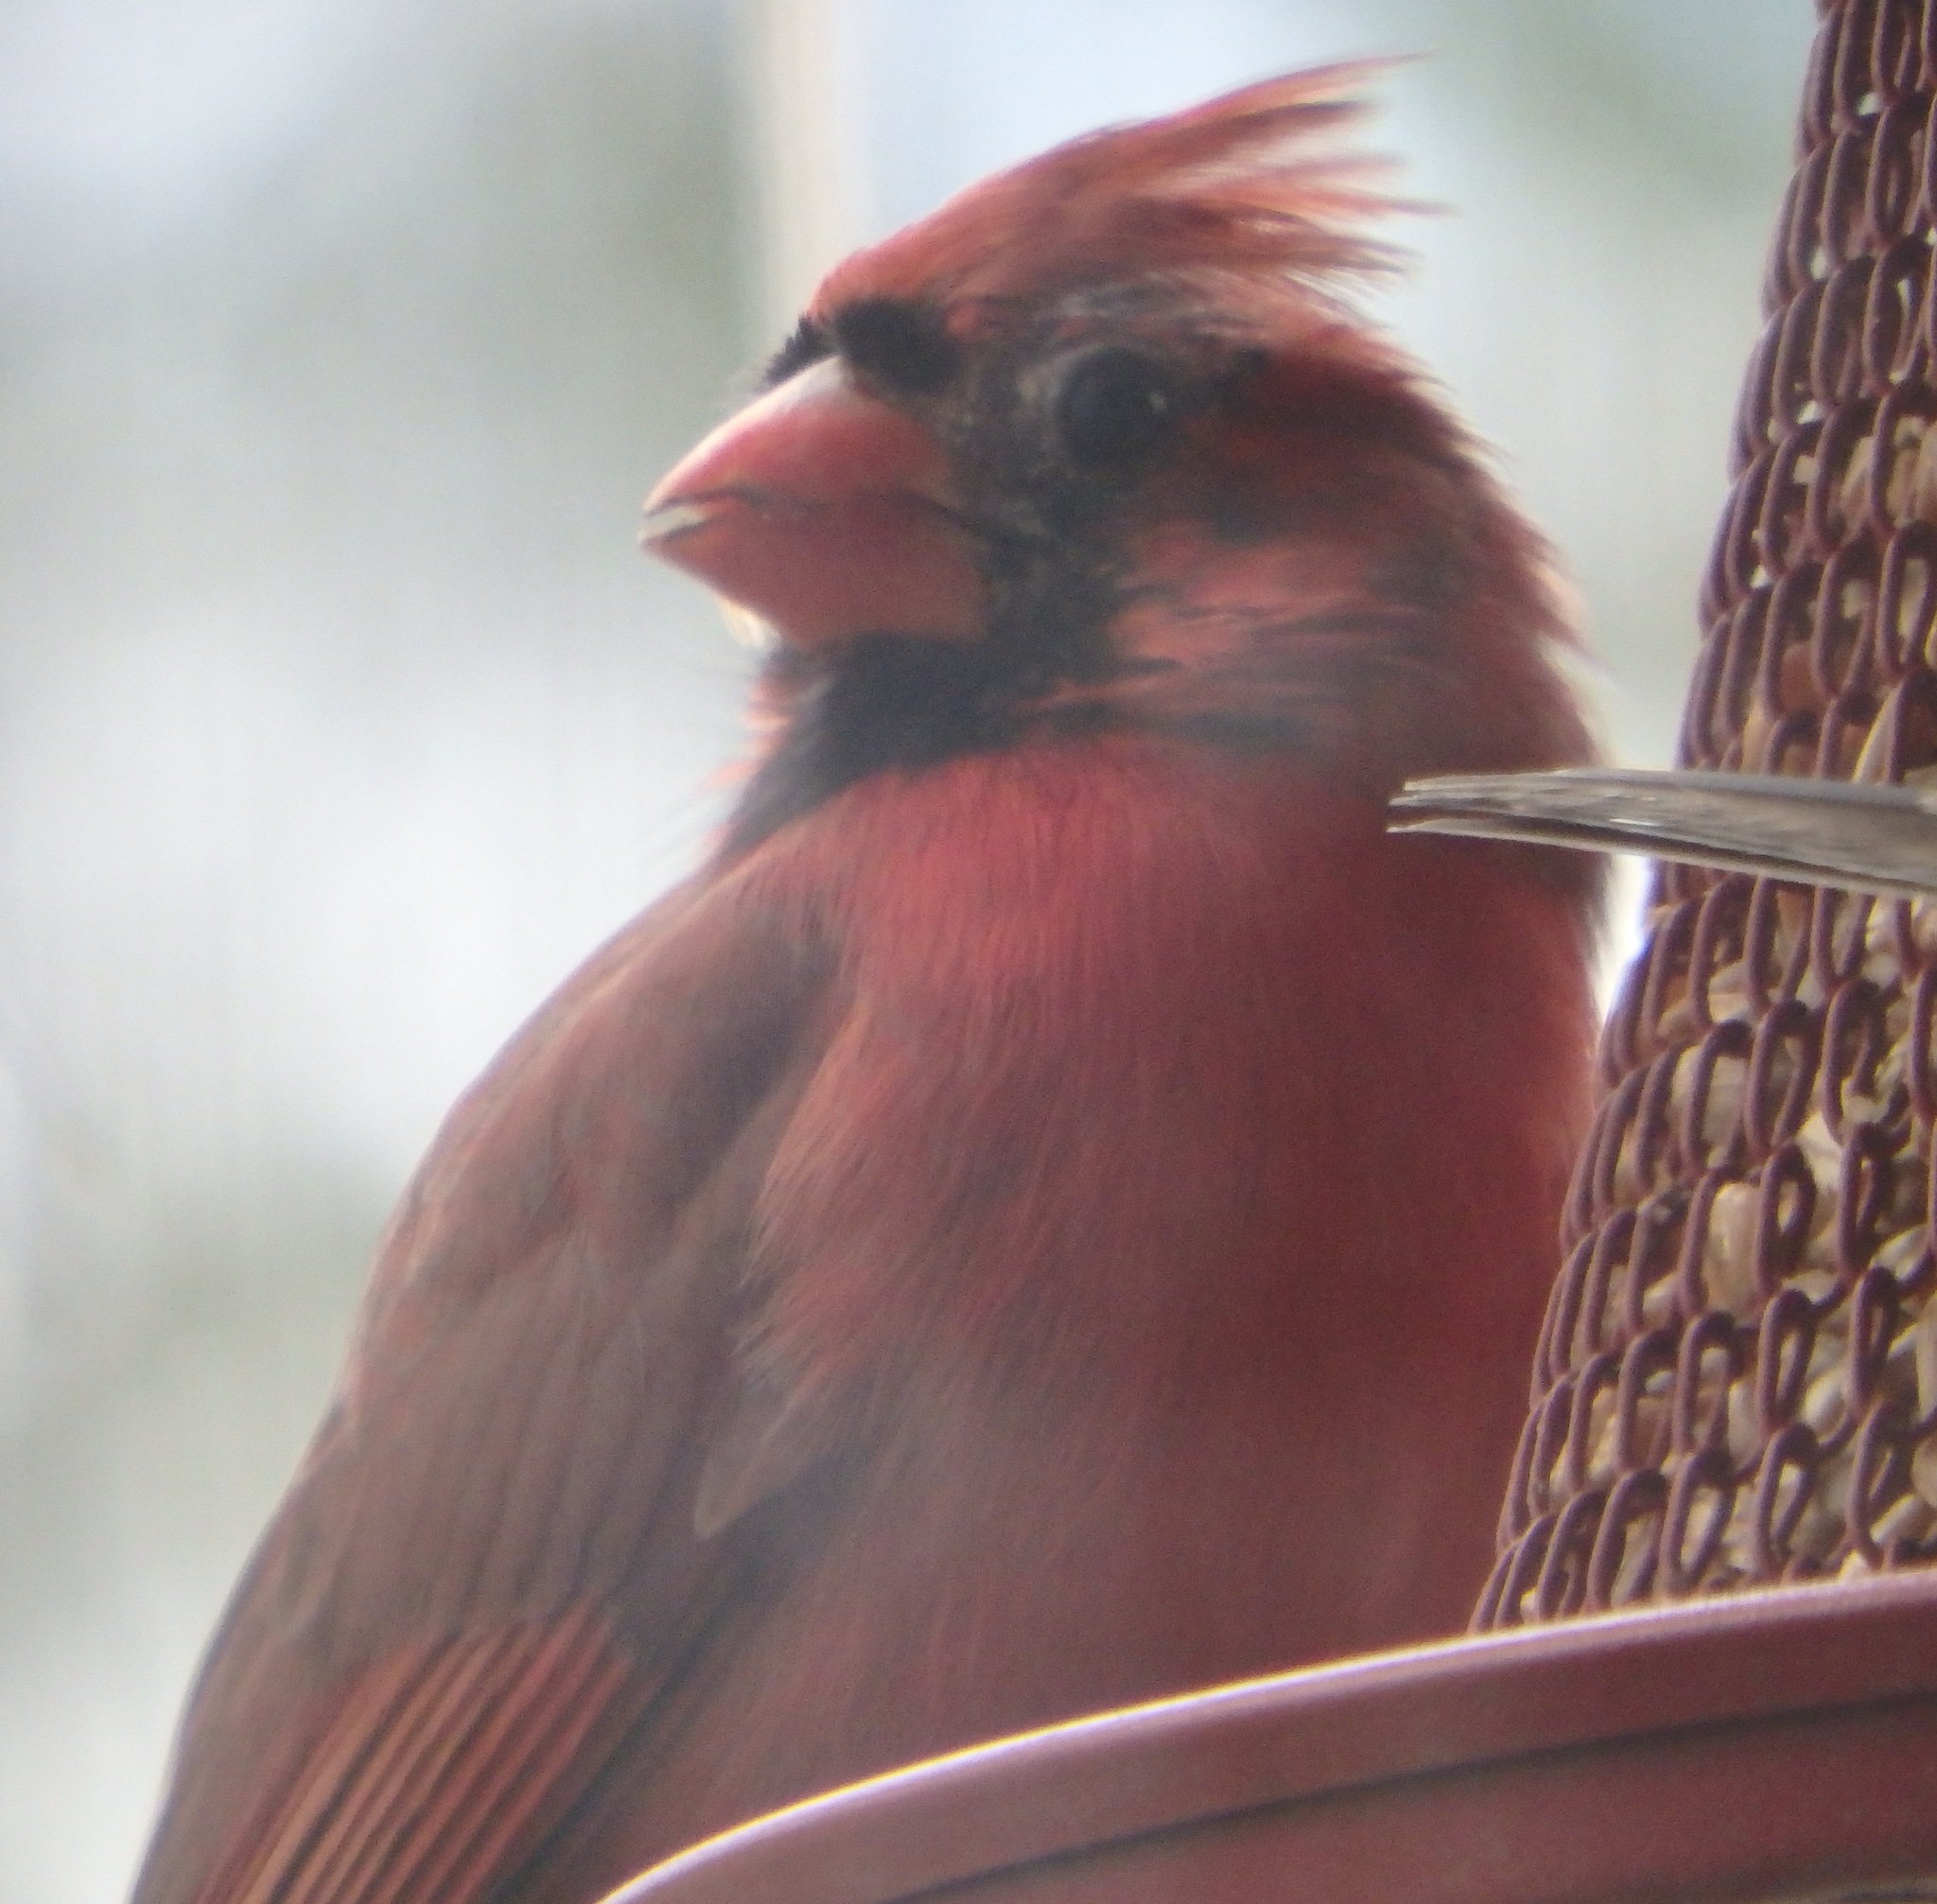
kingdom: Animalia
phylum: Chordata
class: Aves
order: Passeriformes
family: Cardinalidae
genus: Cardinalis
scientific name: Cardinalis cardinalis
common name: Northern cardinal
